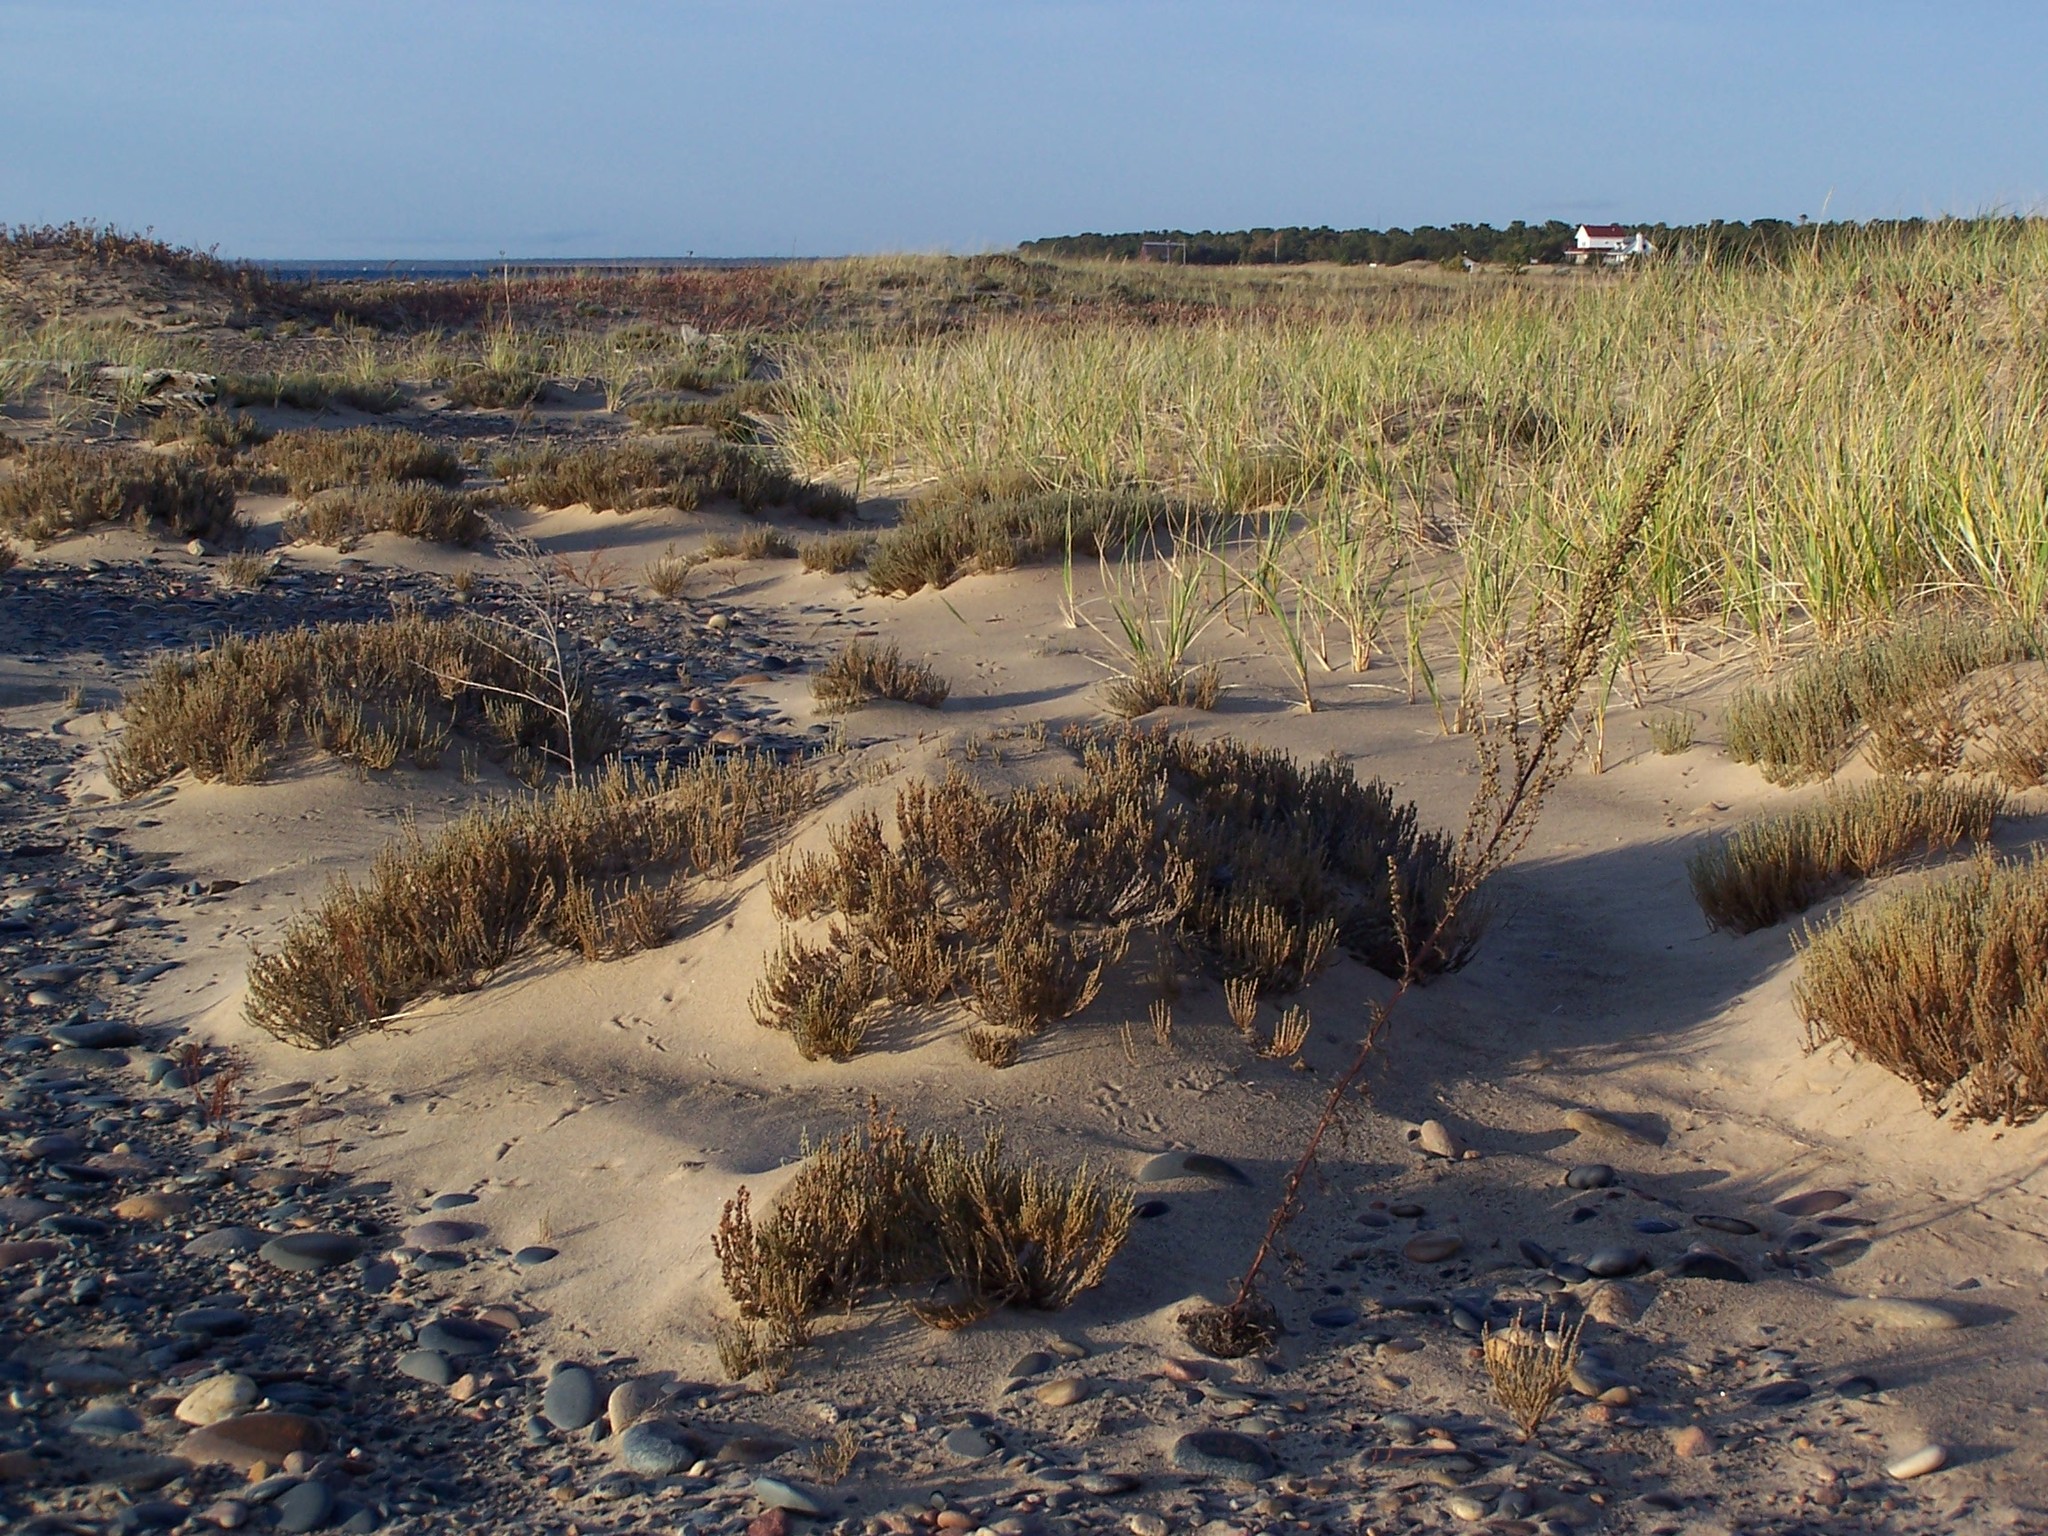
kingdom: Plantae
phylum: Tracheophyta
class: Magnoliopsida
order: Malvales
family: Cistaceae
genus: Hudsonia
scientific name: Hudsonia tomentosa
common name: Beach-heath
